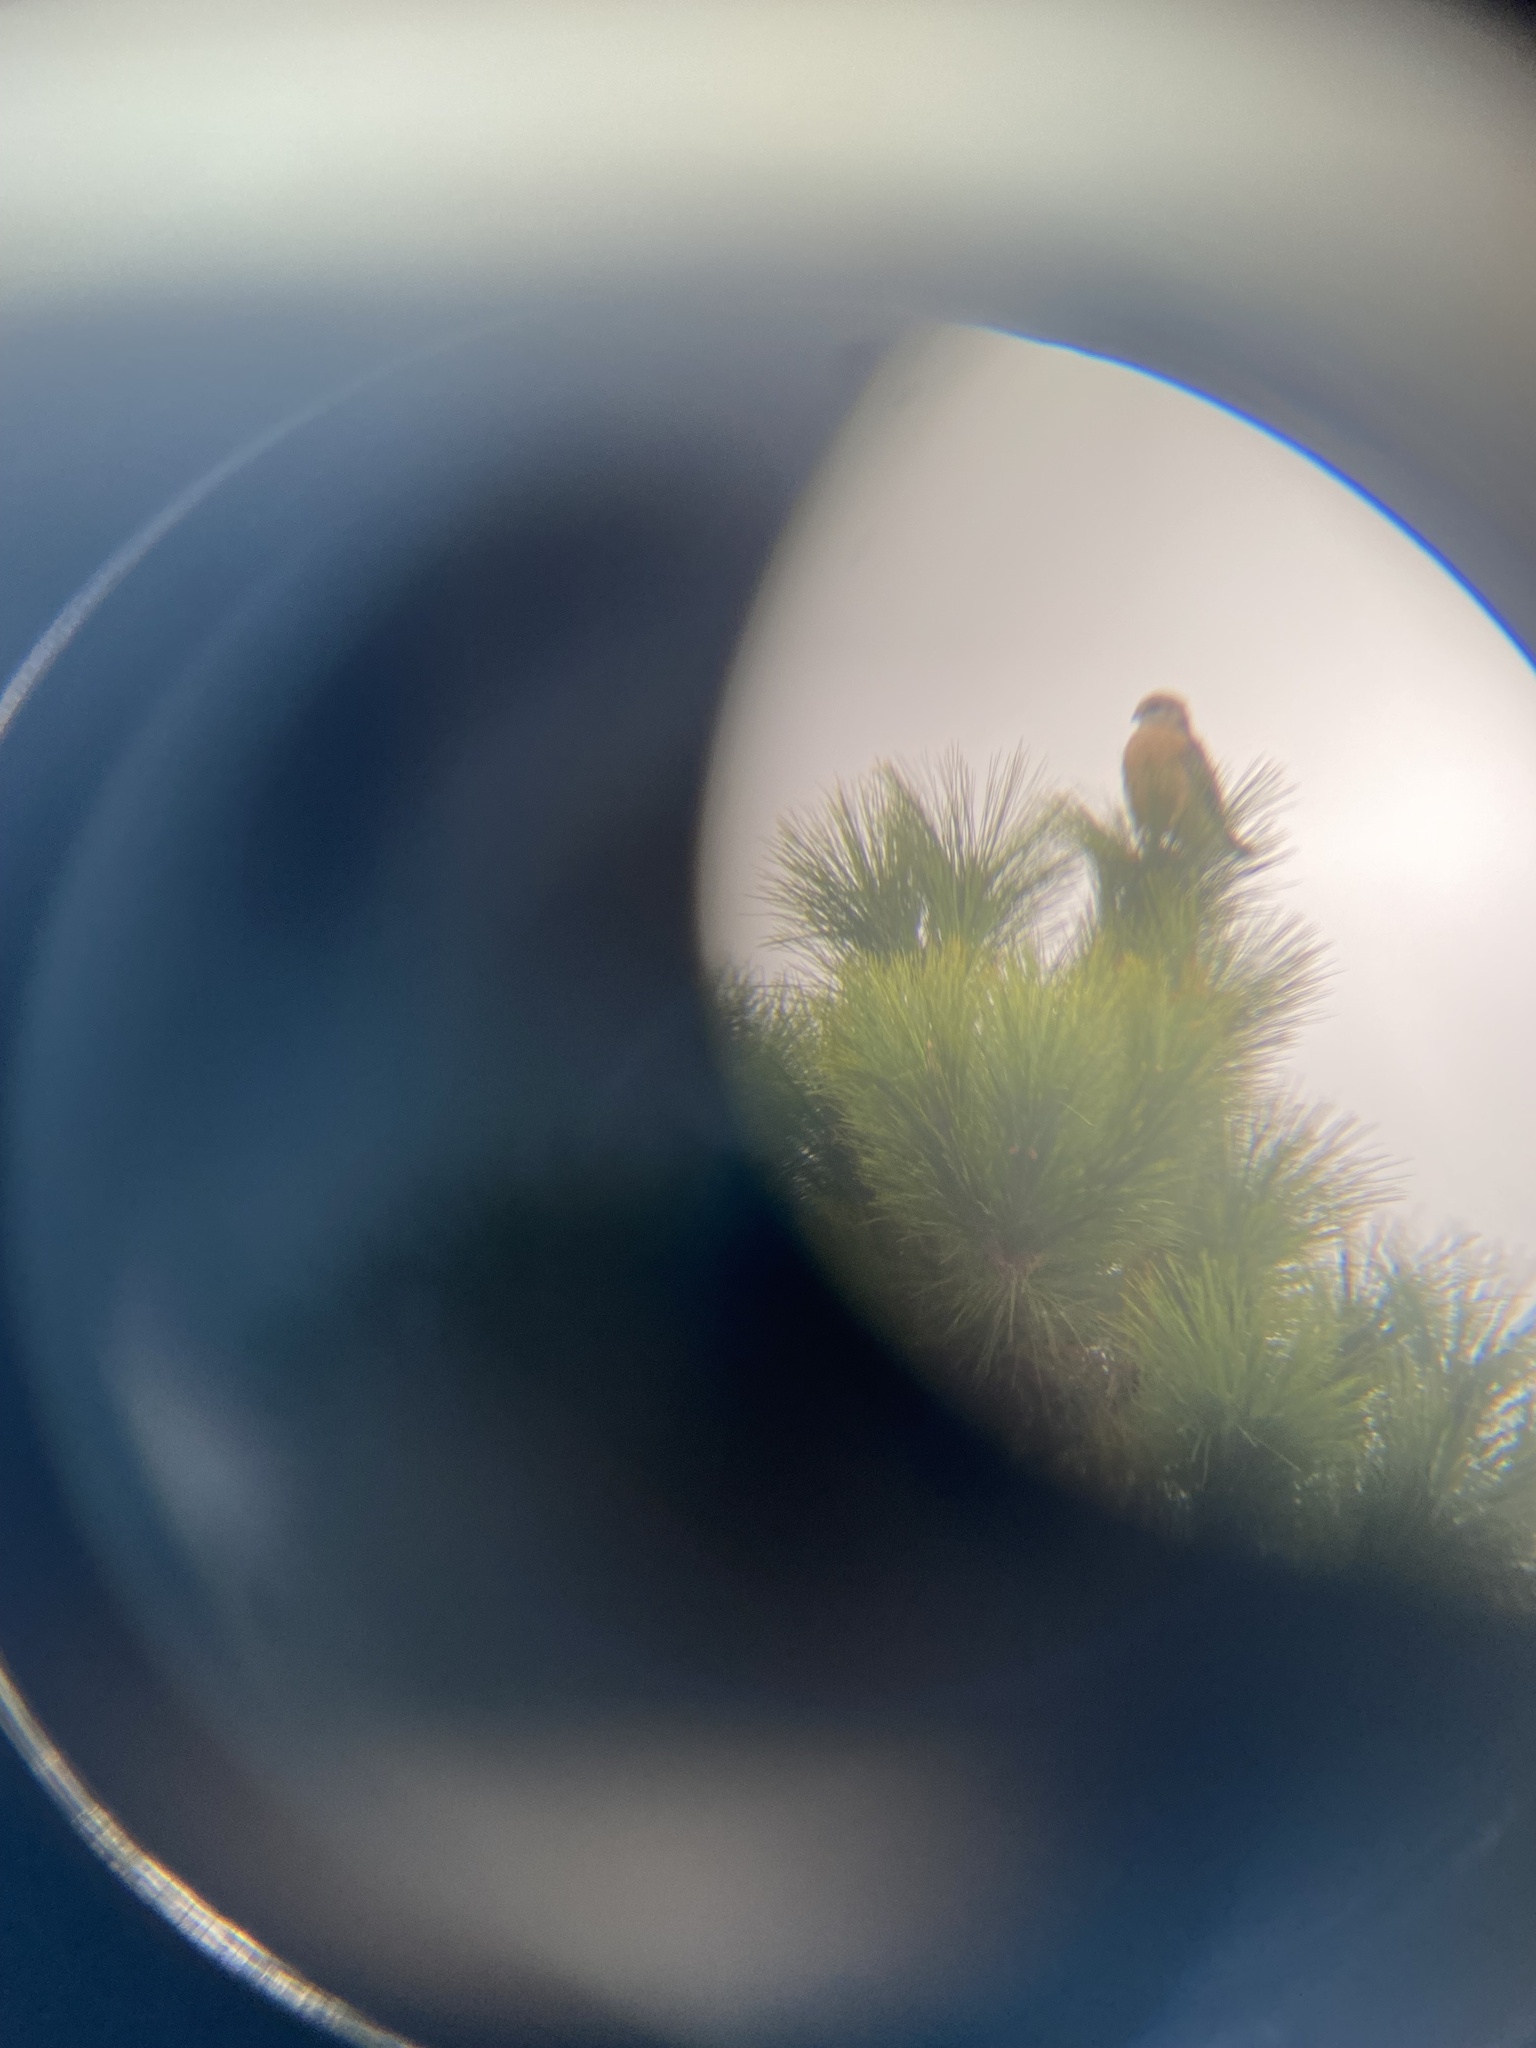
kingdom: Animalia
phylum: Chordata
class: Aves
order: Accipitriformes
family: Accipitridae
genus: Buteo
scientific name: Buteo lineatus
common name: Red-shouldered hawk
